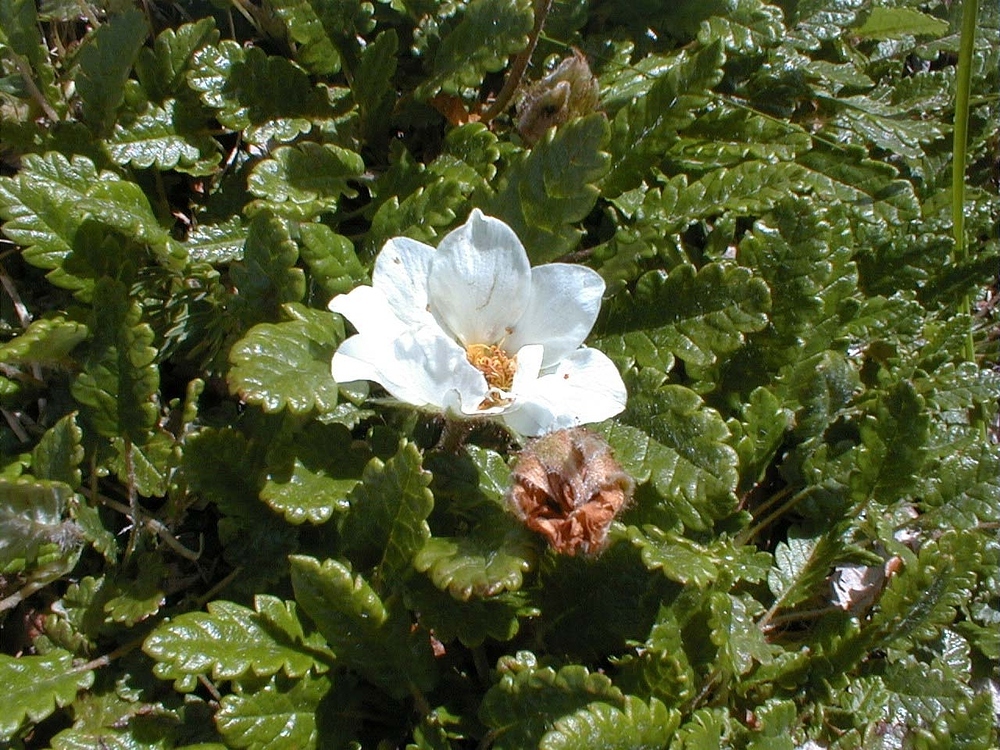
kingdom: Plantae
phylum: Tracheophyta
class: Magnoliopsida
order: Rosales
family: Rosaceae
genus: Dryas
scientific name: Dryas octopetala
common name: Eight-petal mountain-avens
